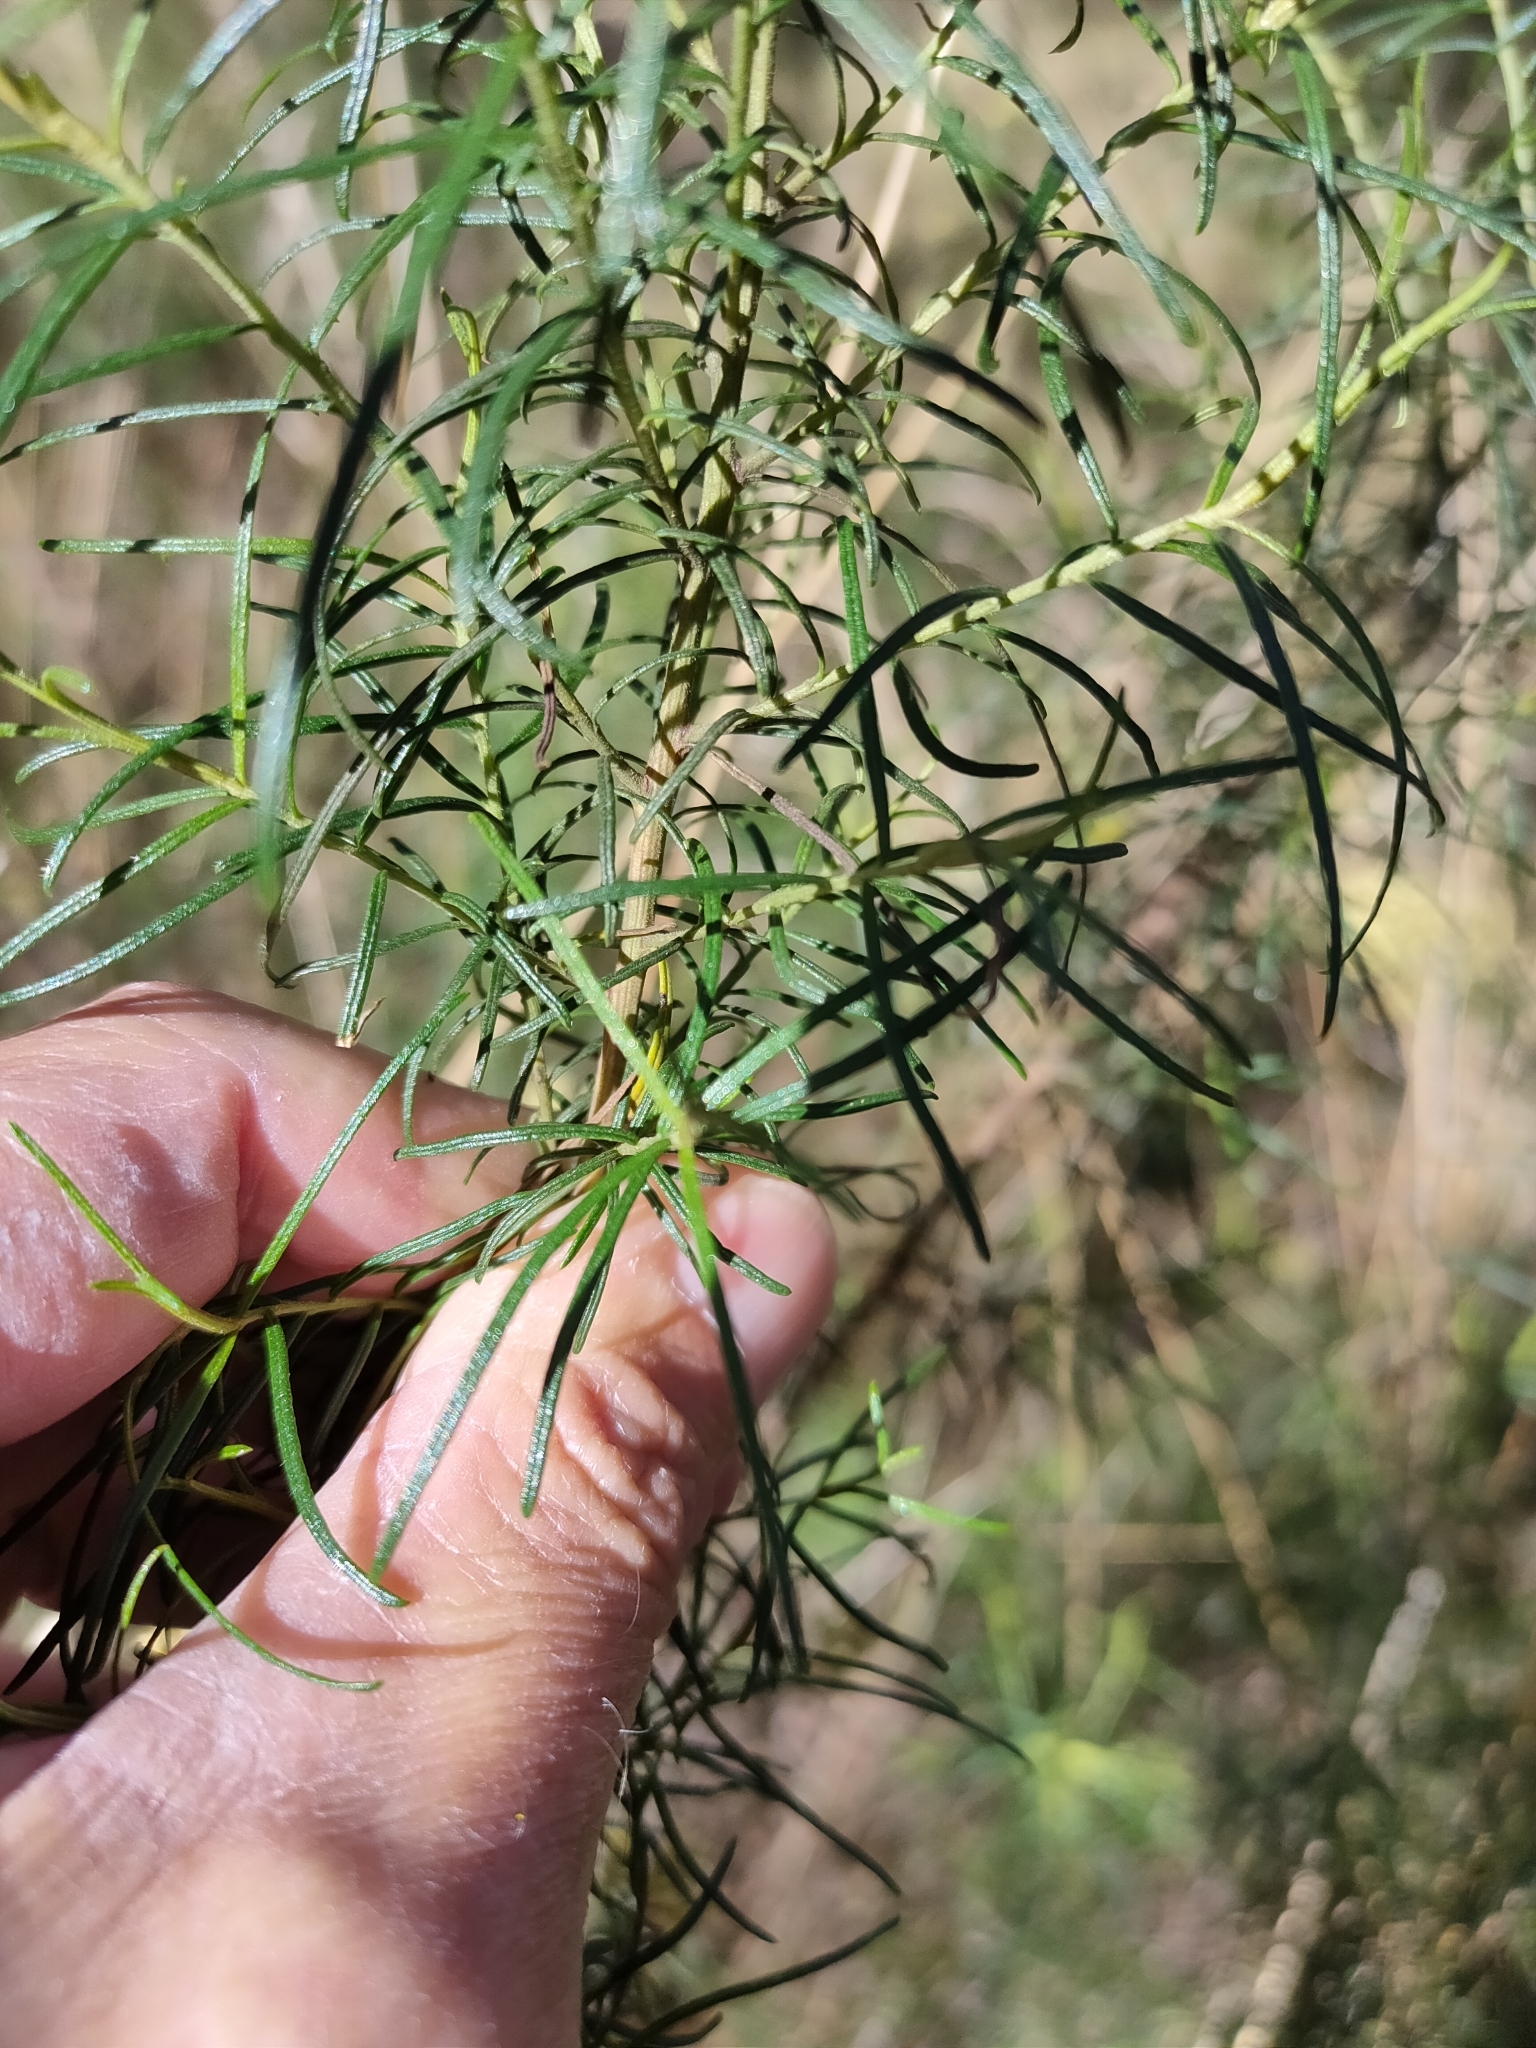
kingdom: Plantae
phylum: Tracheophyta
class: Magnoliopsida
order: Asterales
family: Asteraceae
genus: Cassinia
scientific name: Cassinia quinquefaria
